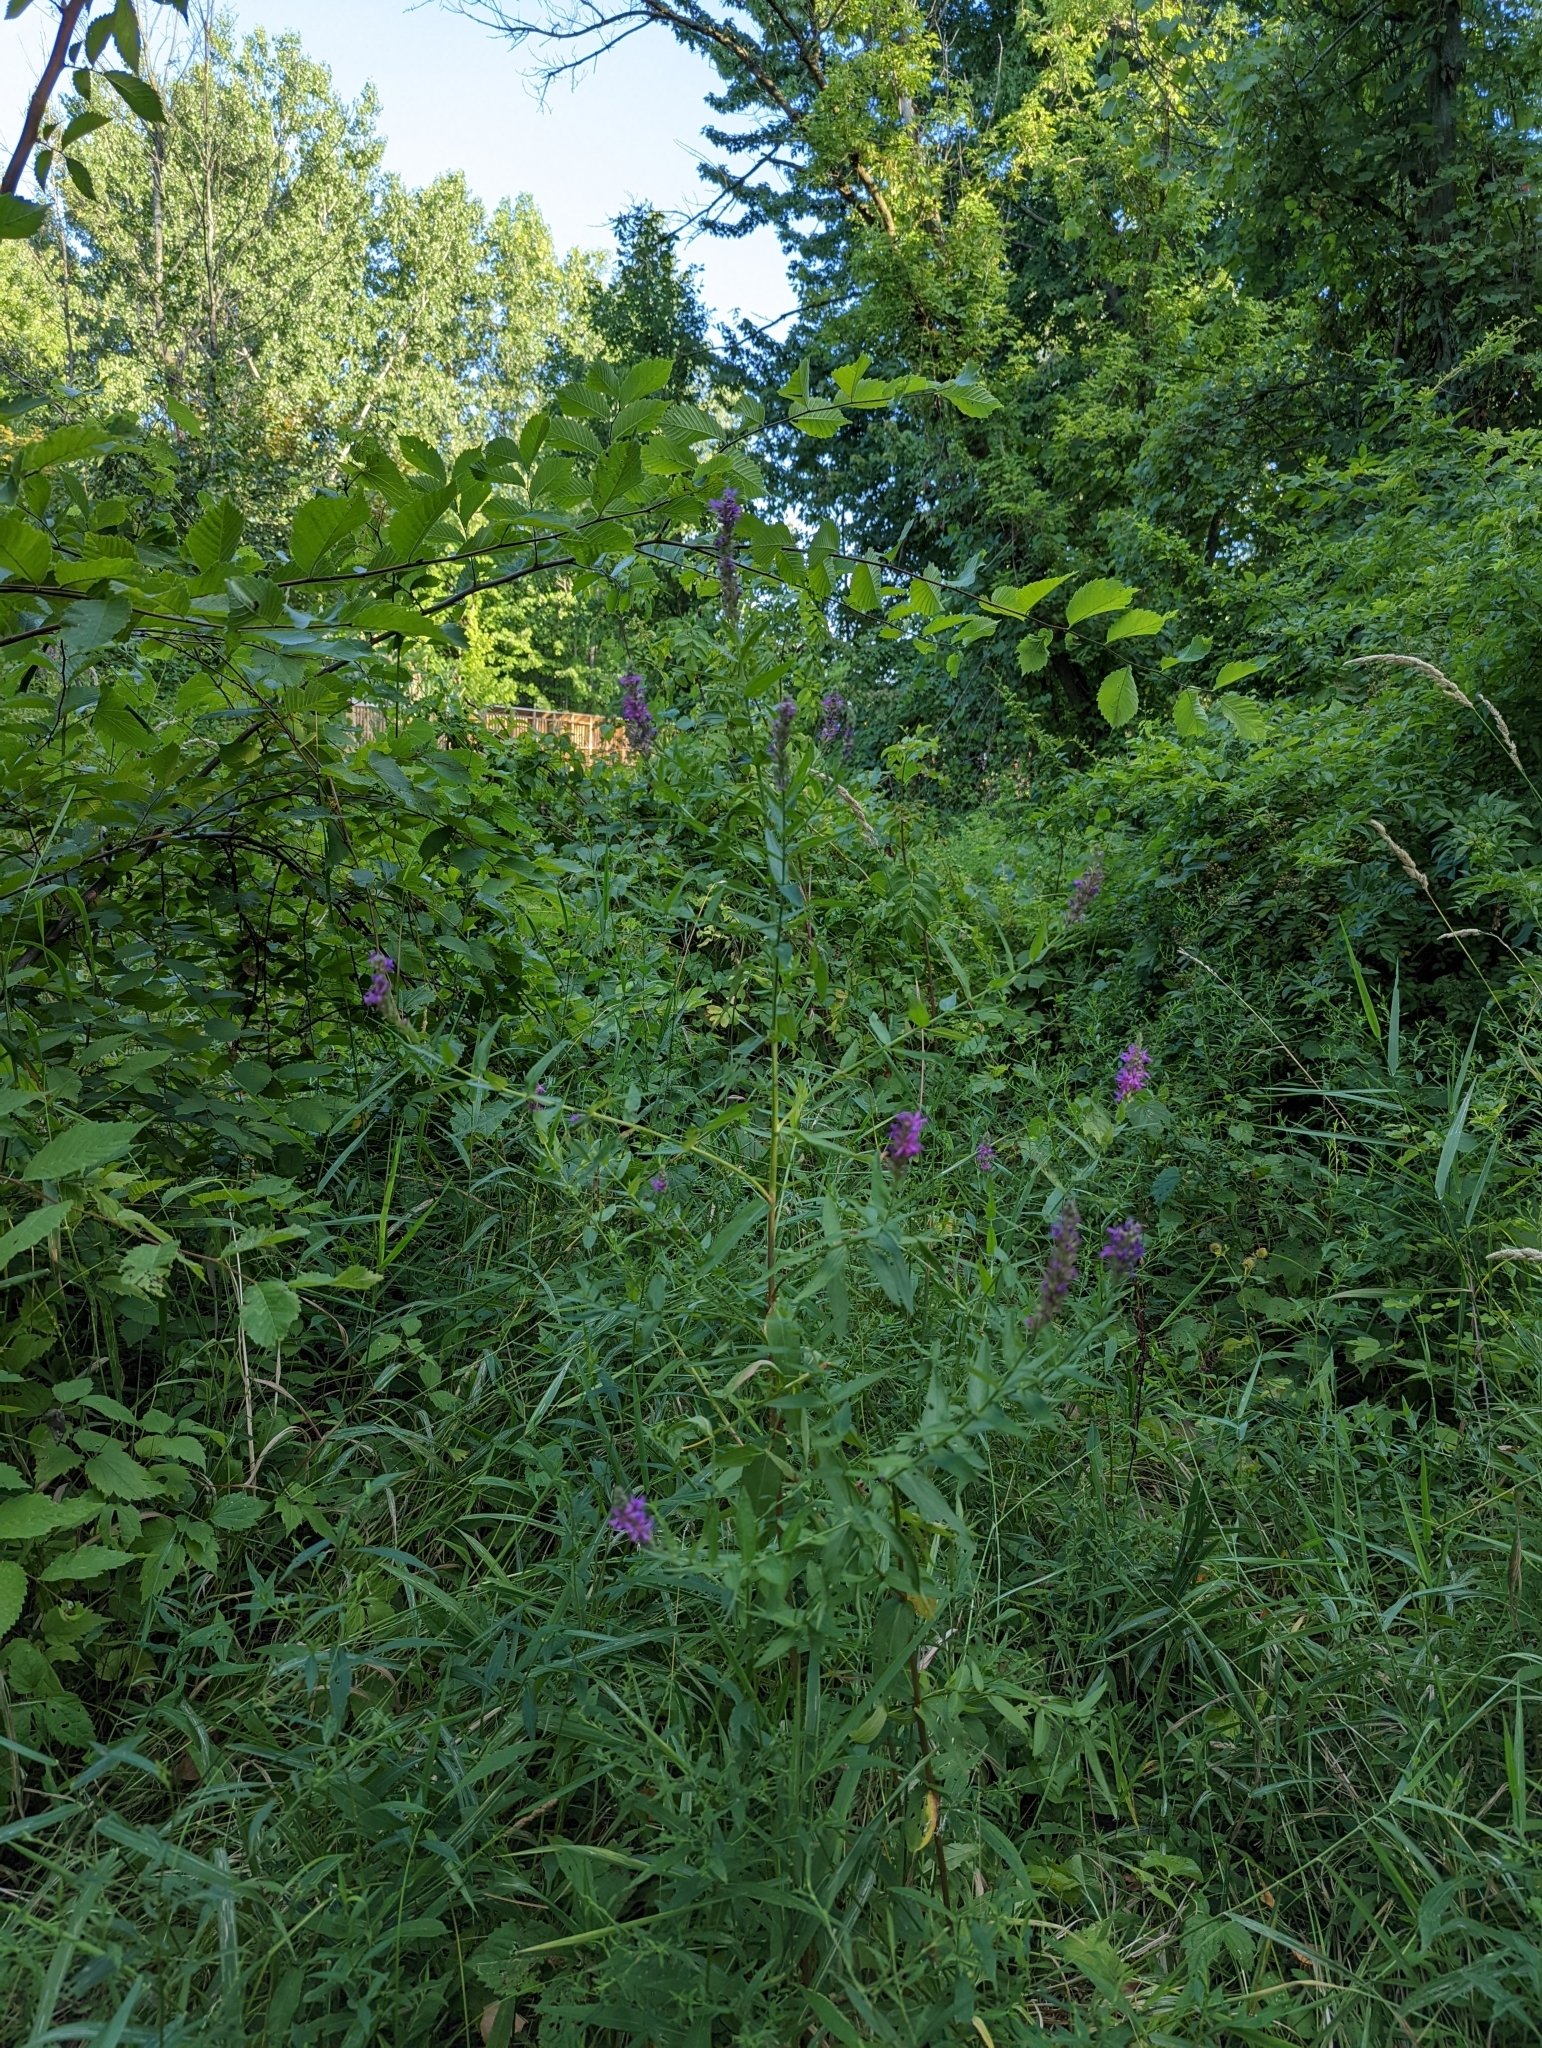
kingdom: Plantae
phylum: Tracheophyta
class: Magnoliopsida
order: Myrtales
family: Lythraceae
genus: Lythrum
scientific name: Lythrum salicaria
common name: Purple loosestrife
